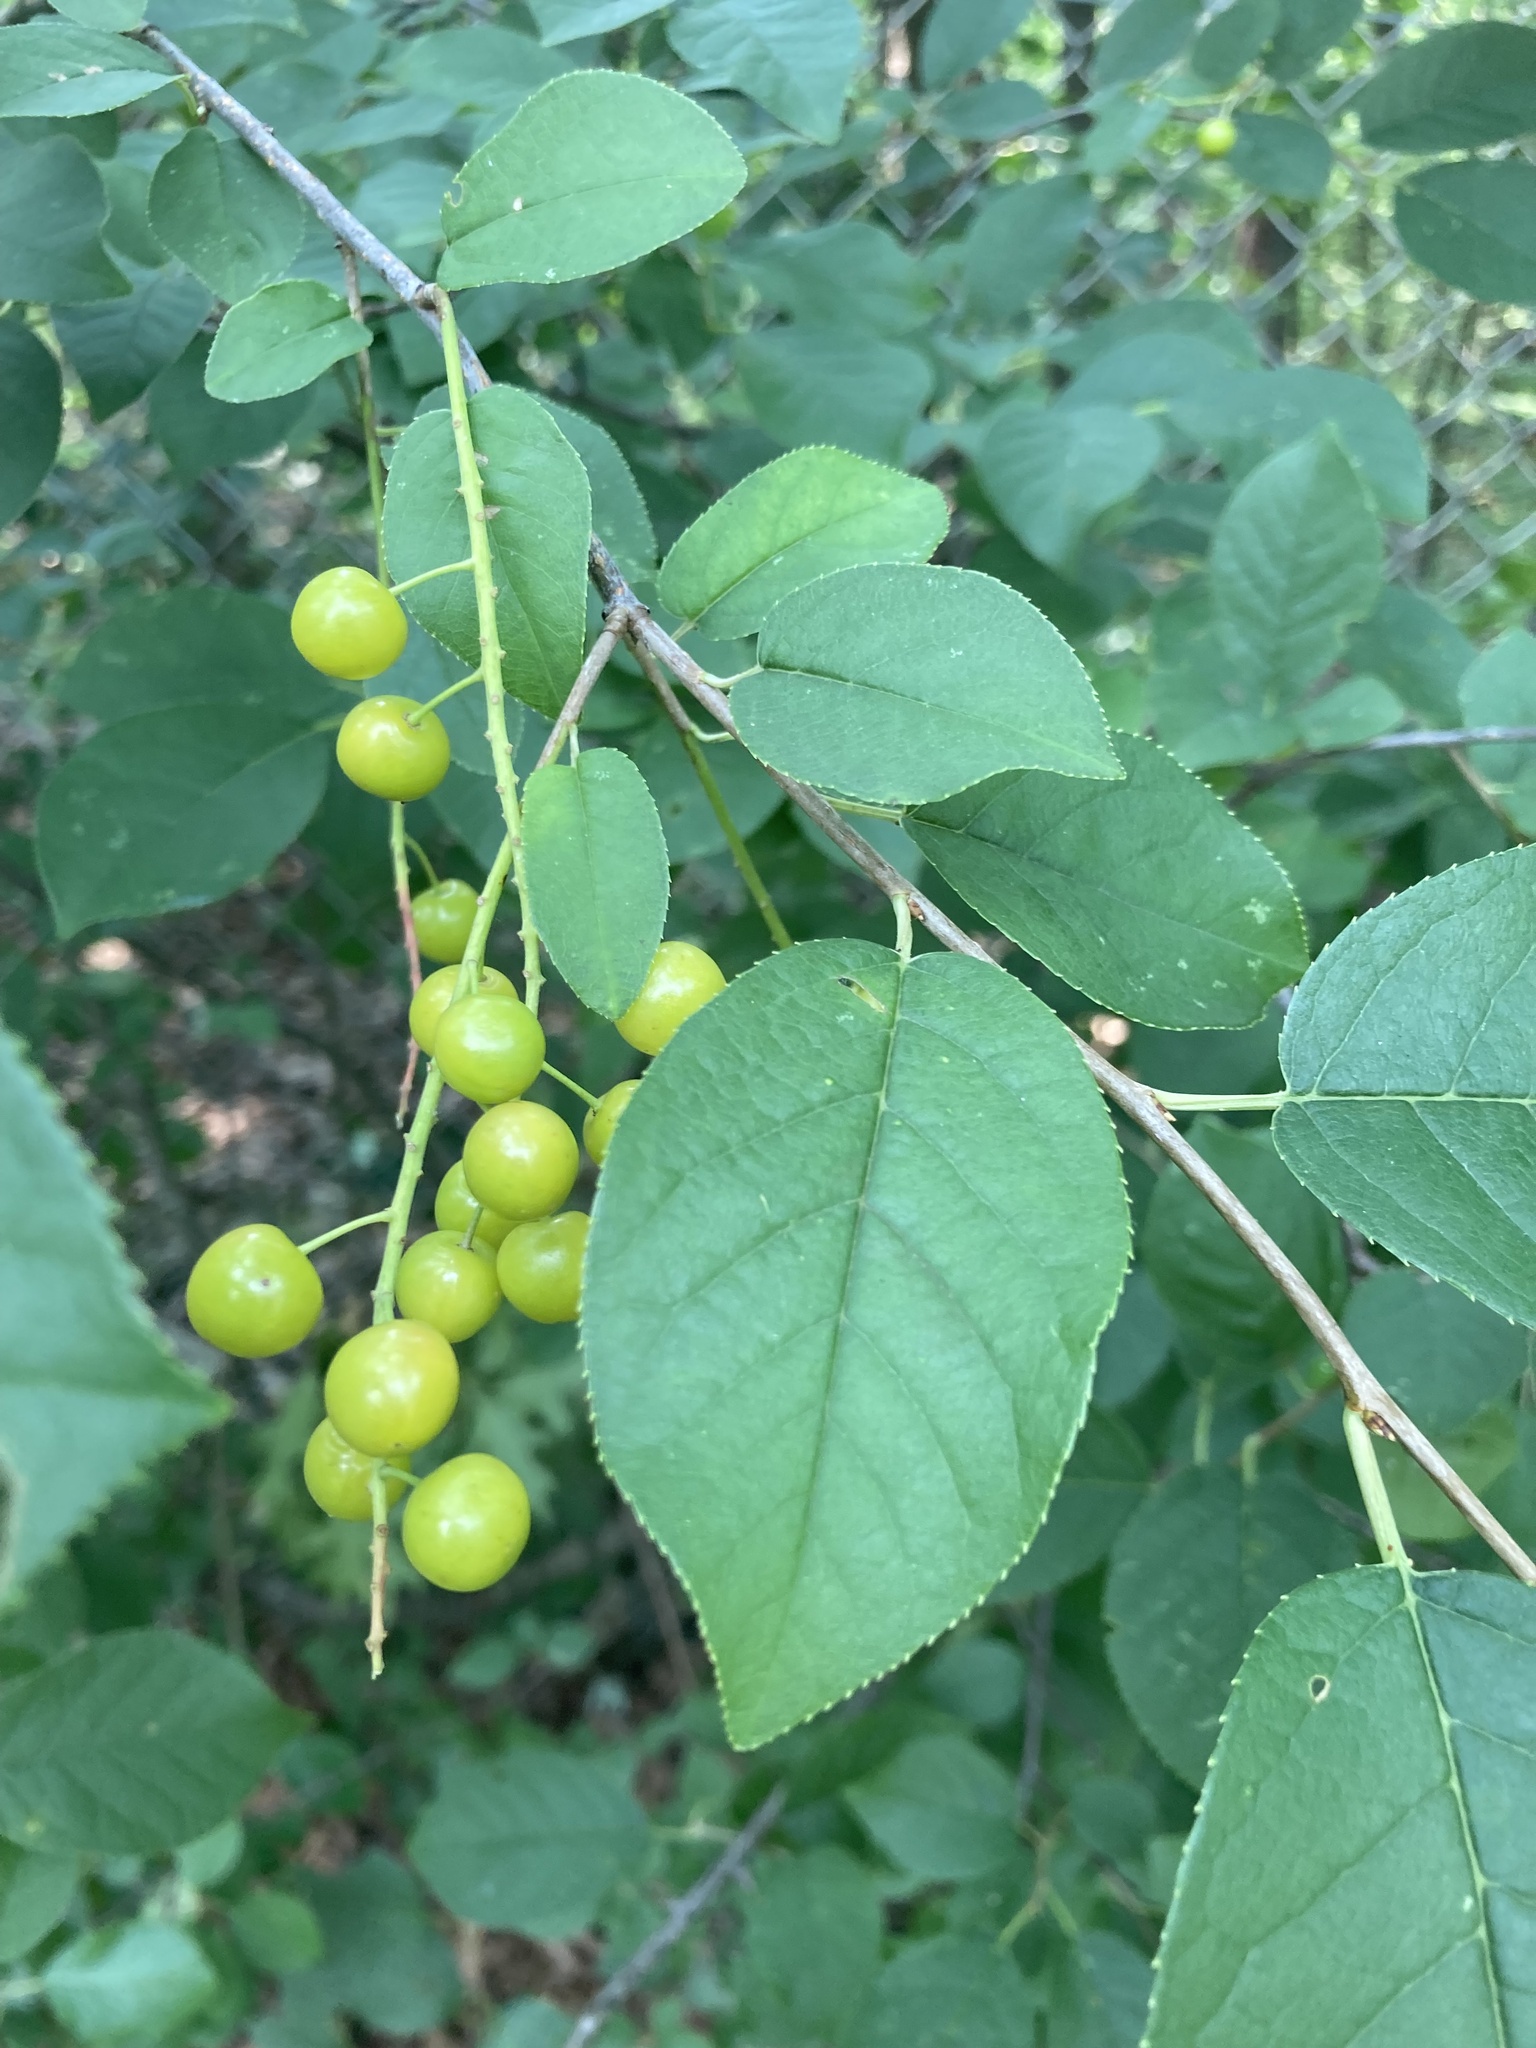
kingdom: Plantae
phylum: Tracheophyta
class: Magnoliopsida
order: Rosales
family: Rosaceae
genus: Prunus
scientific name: Prunus virginiana
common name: Chokecherry
